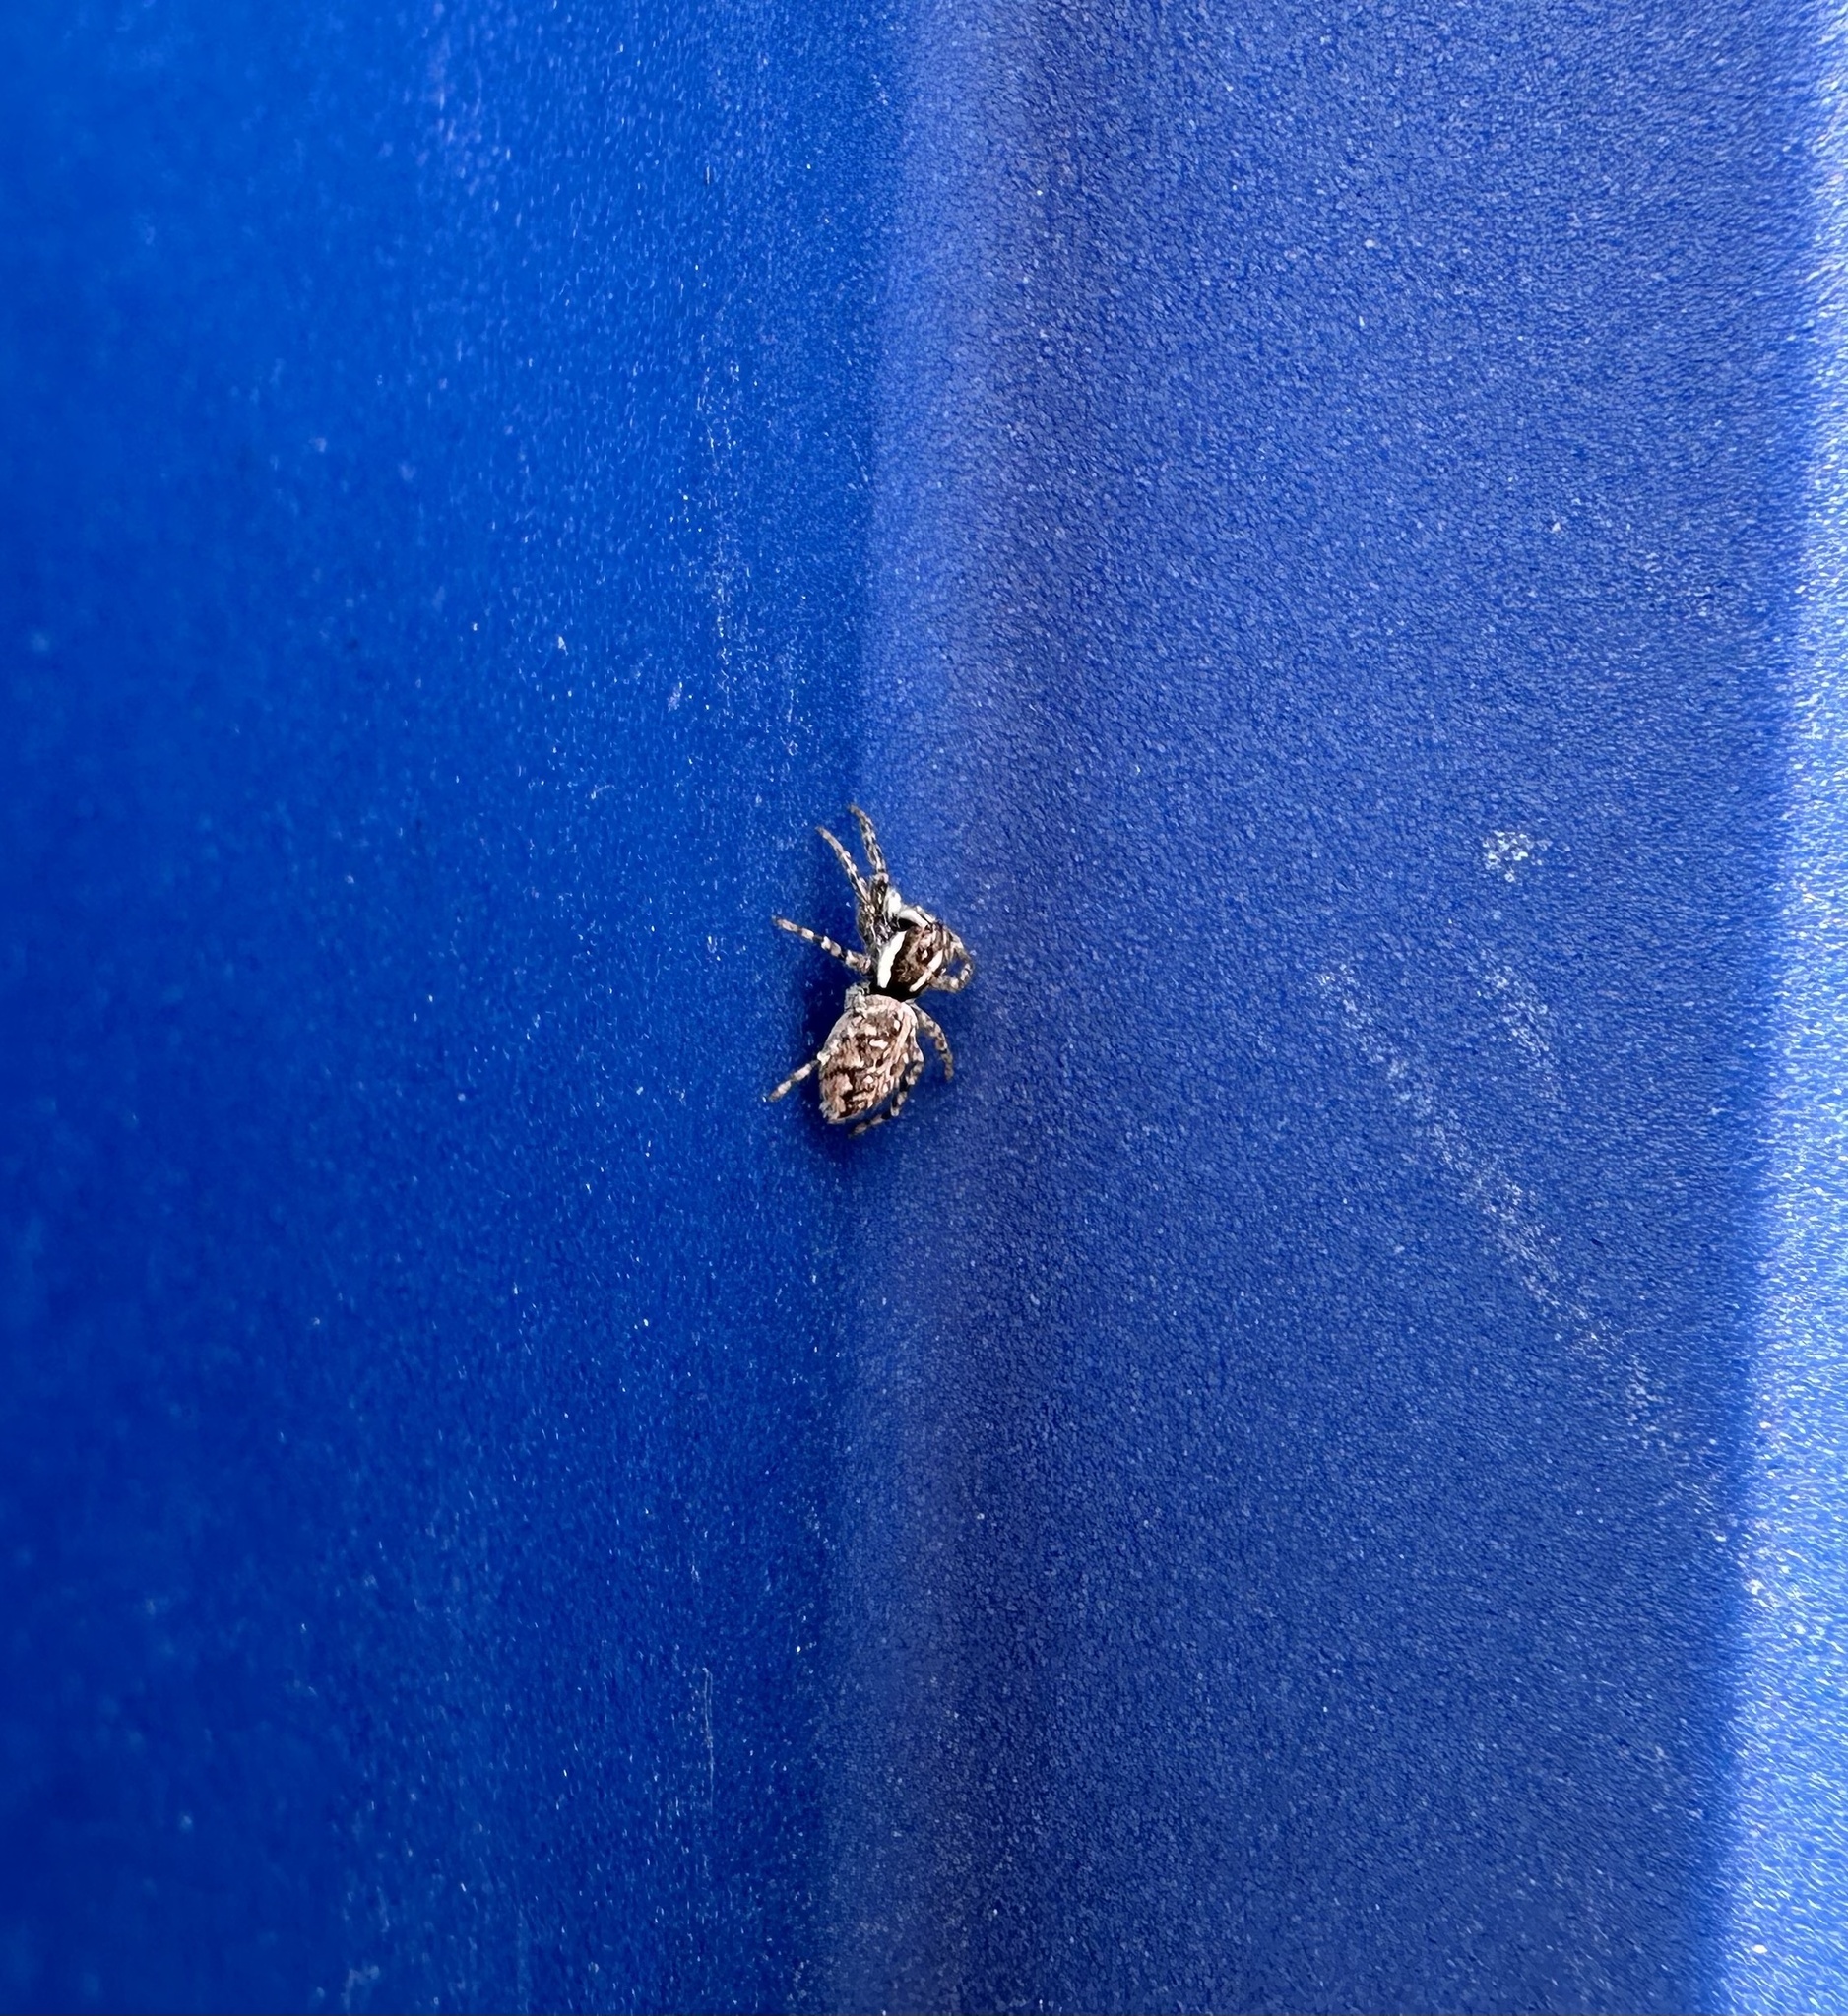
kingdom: Animalia
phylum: Arthropoda
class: Arachnida
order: Araneae
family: Salticidae
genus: Menemerus
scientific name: Menemerus semilimbatus
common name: Jumping spider
